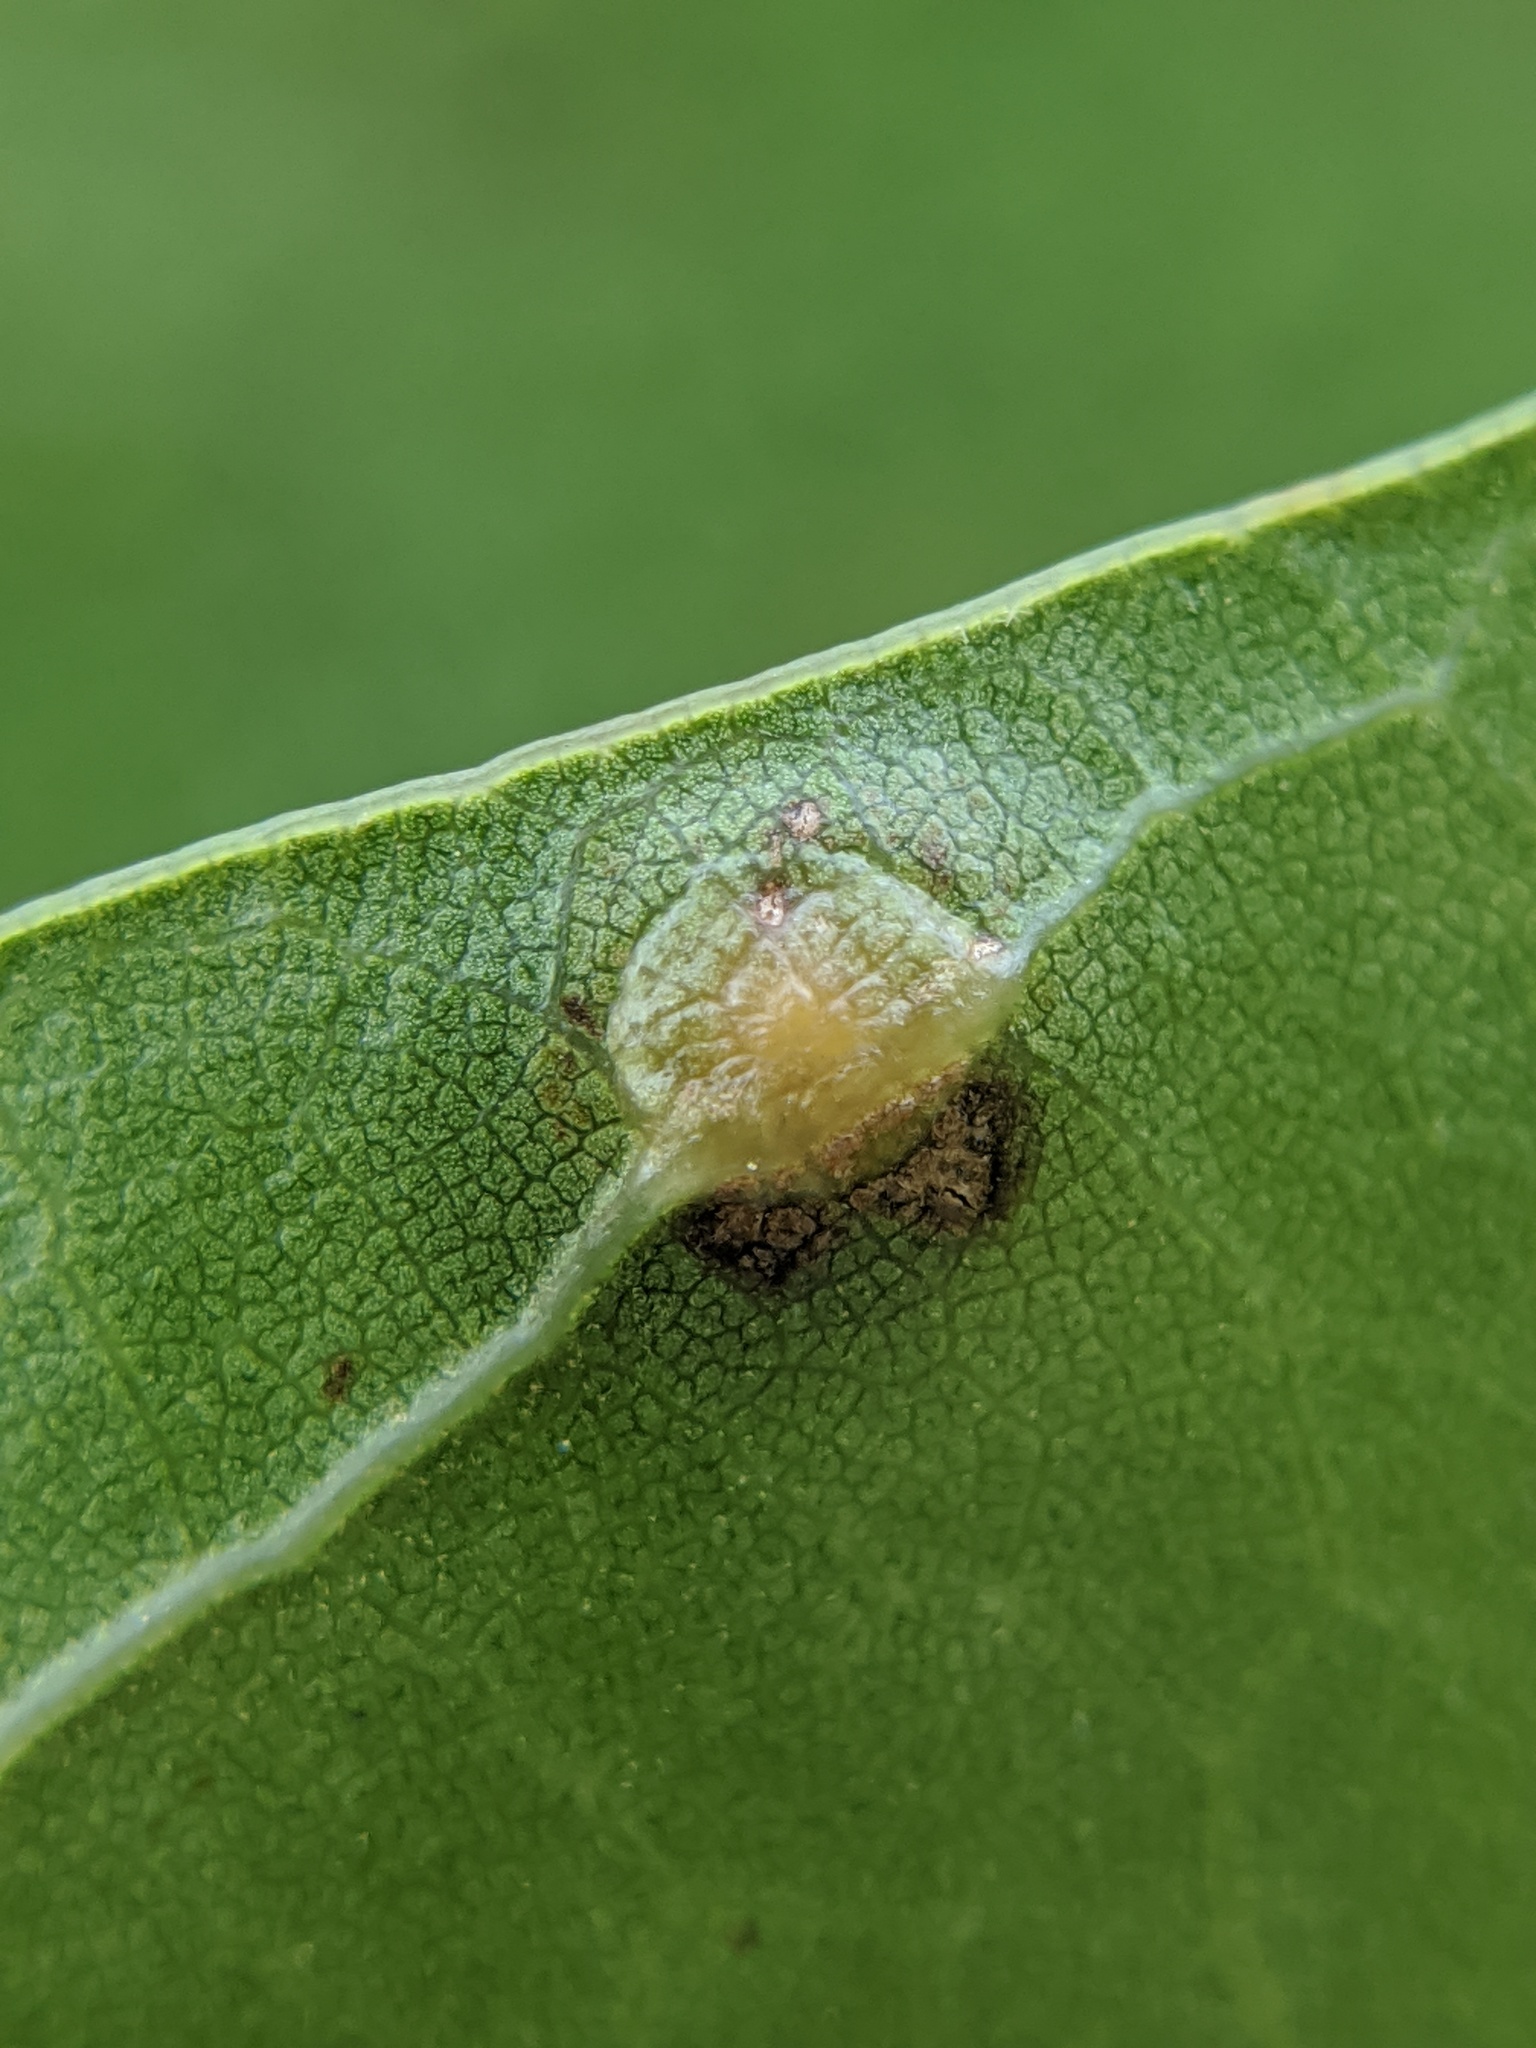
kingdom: Animalia
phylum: Arthropoda
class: Insecta
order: Diptera
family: Cecidomyiidae
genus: Polystepha
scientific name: Polystepha pilulae
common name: Oak leaf gall midge
